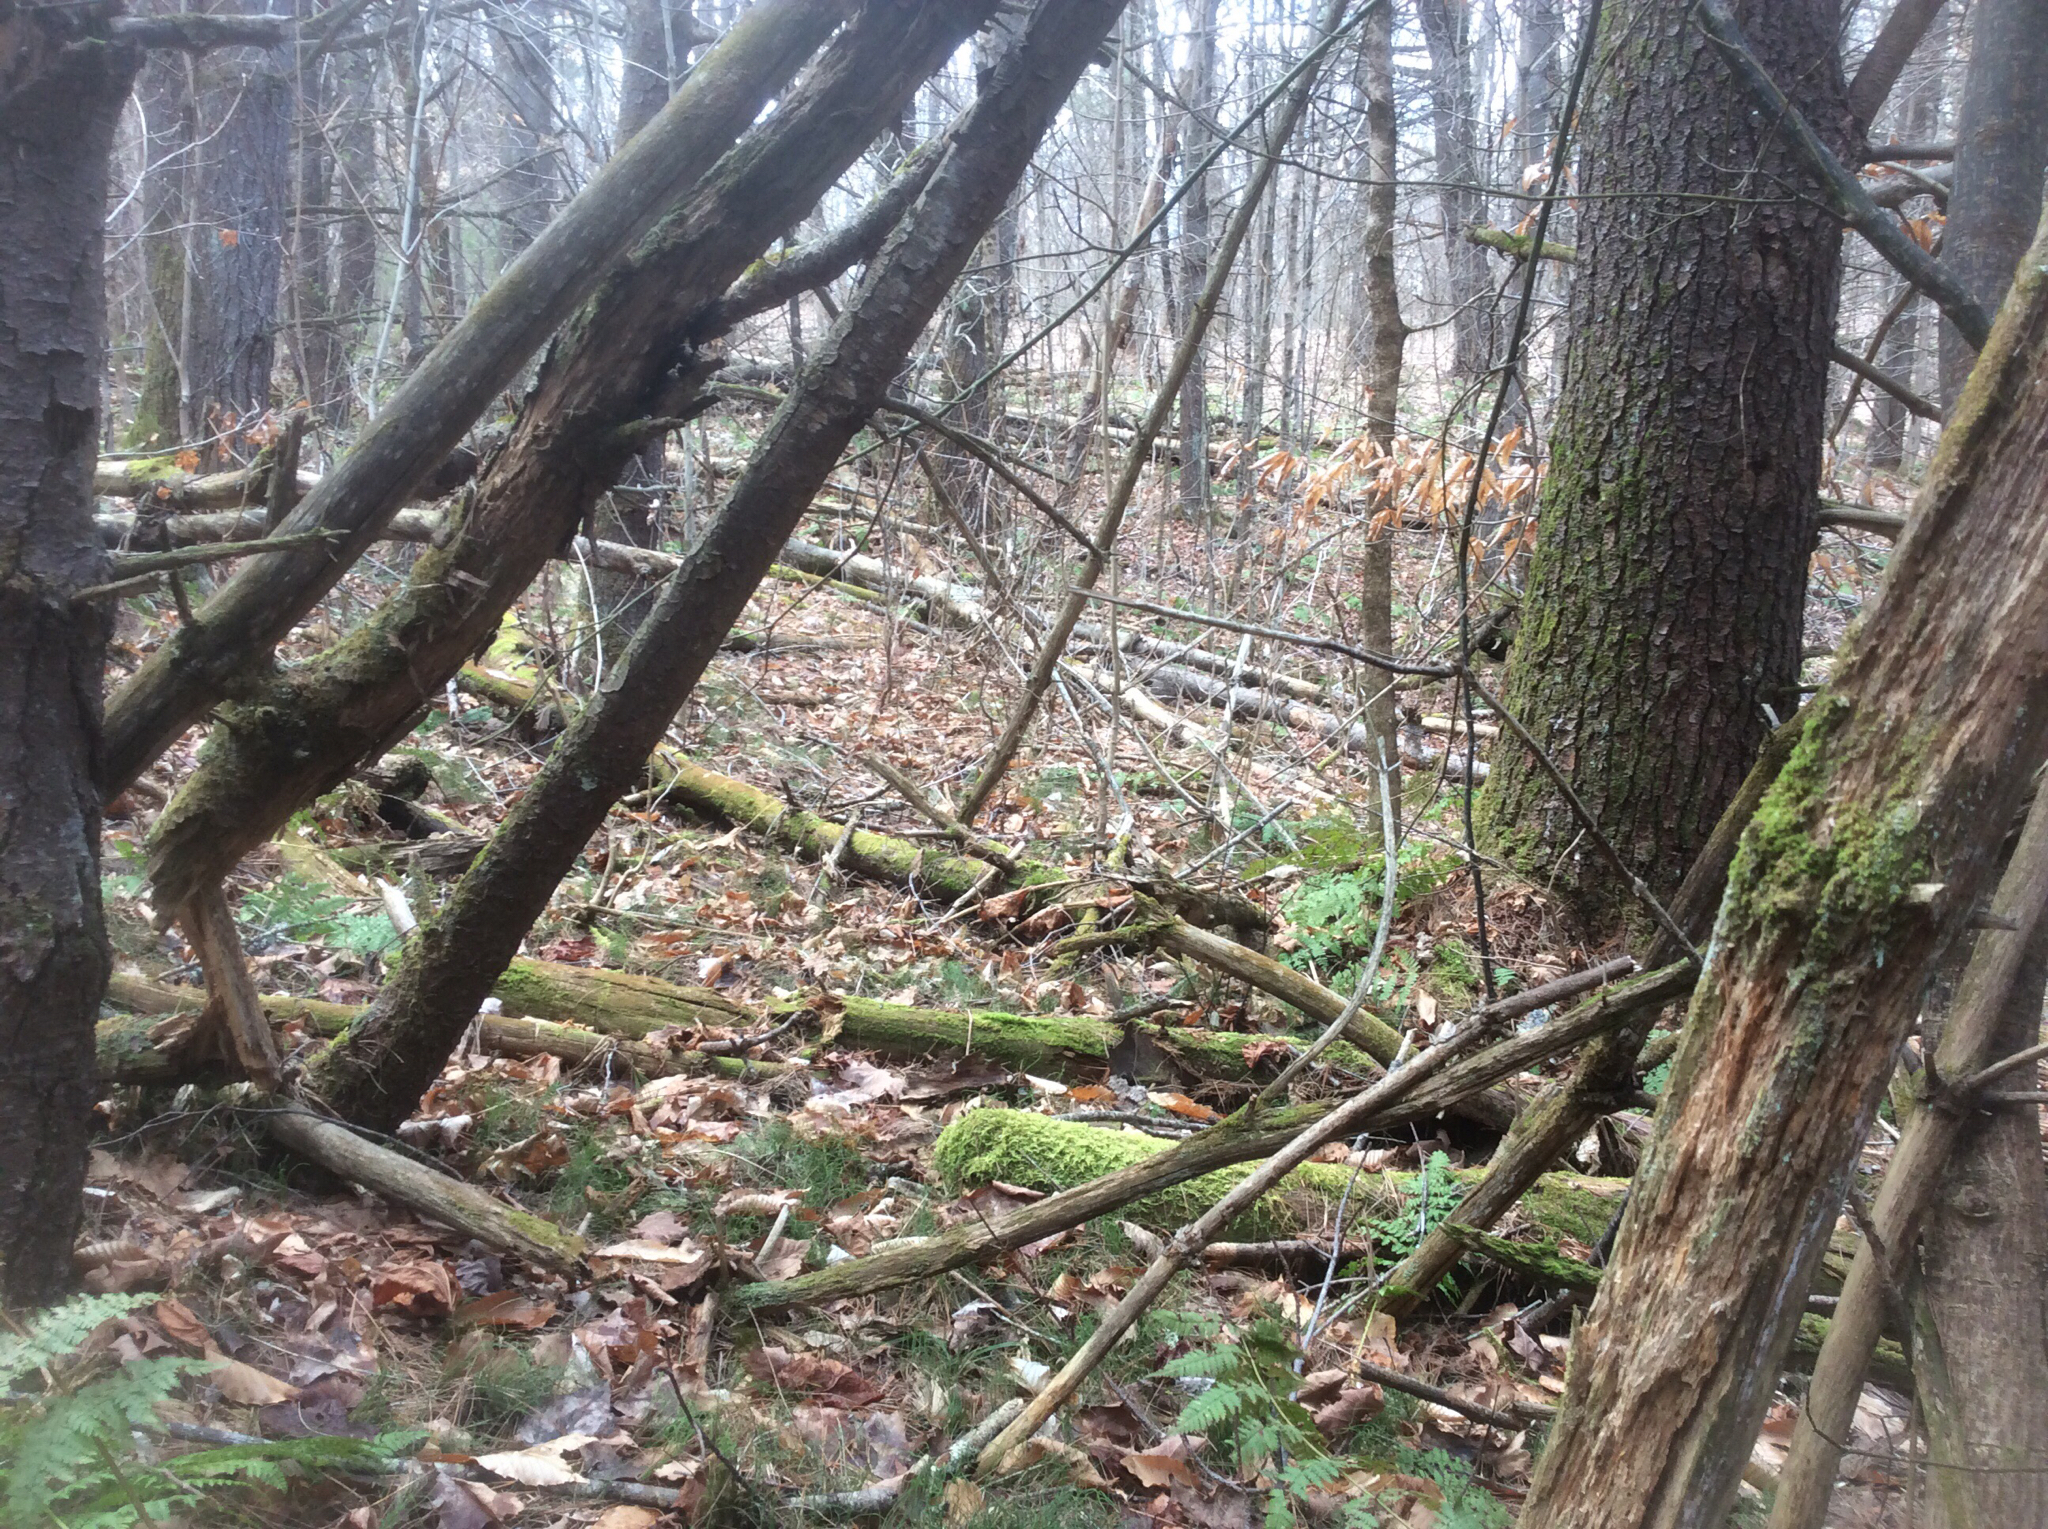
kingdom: Plantae
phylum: Tracheophyta
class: Pinopsida
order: Pinales
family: Pinaceae
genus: Pinus
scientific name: Pinus strobus
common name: Weymouth pine
